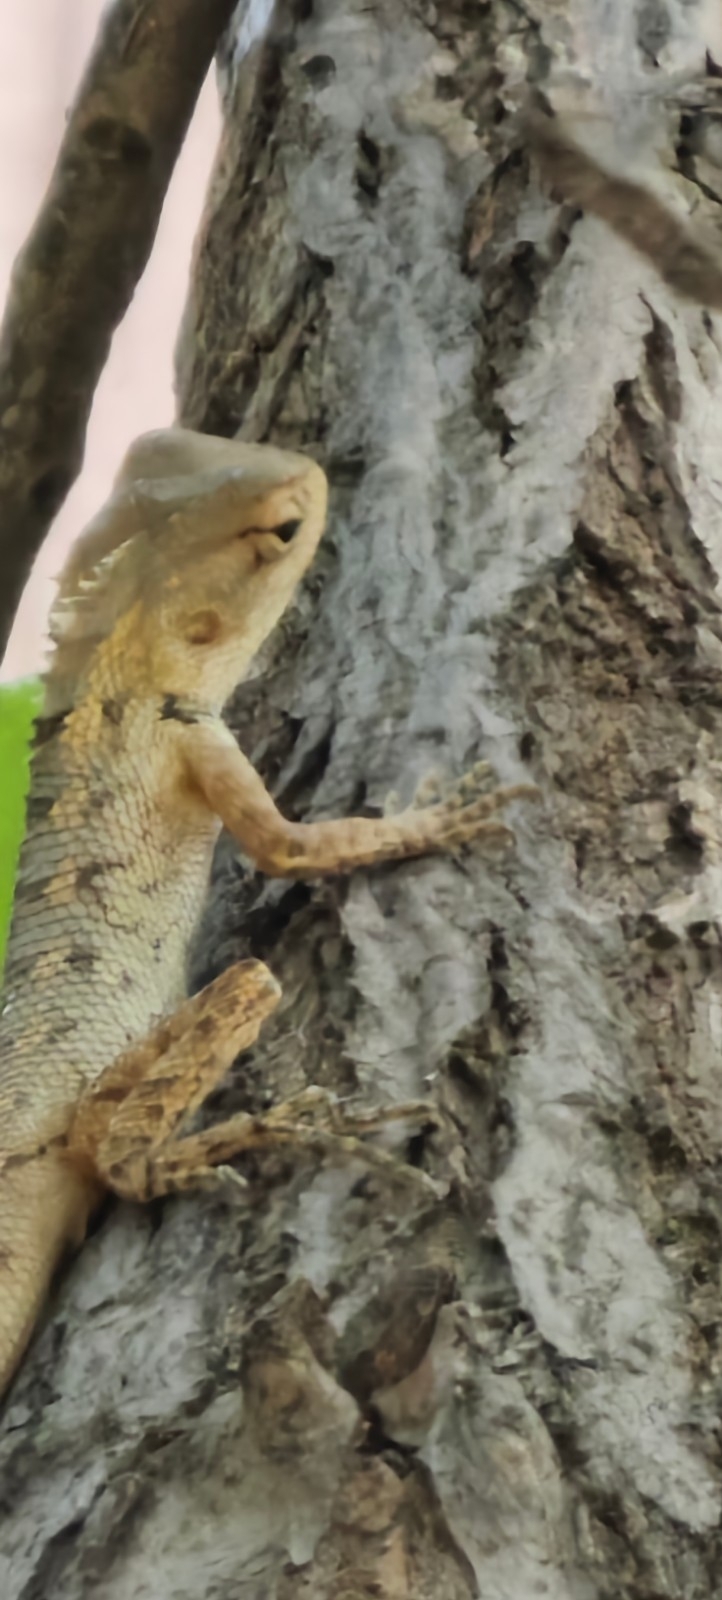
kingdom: Animalia
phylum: Chordata
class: Squamata
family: Agamidae
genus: Calotes
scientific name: Calotes versicolor
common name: Oriental garden lizard
